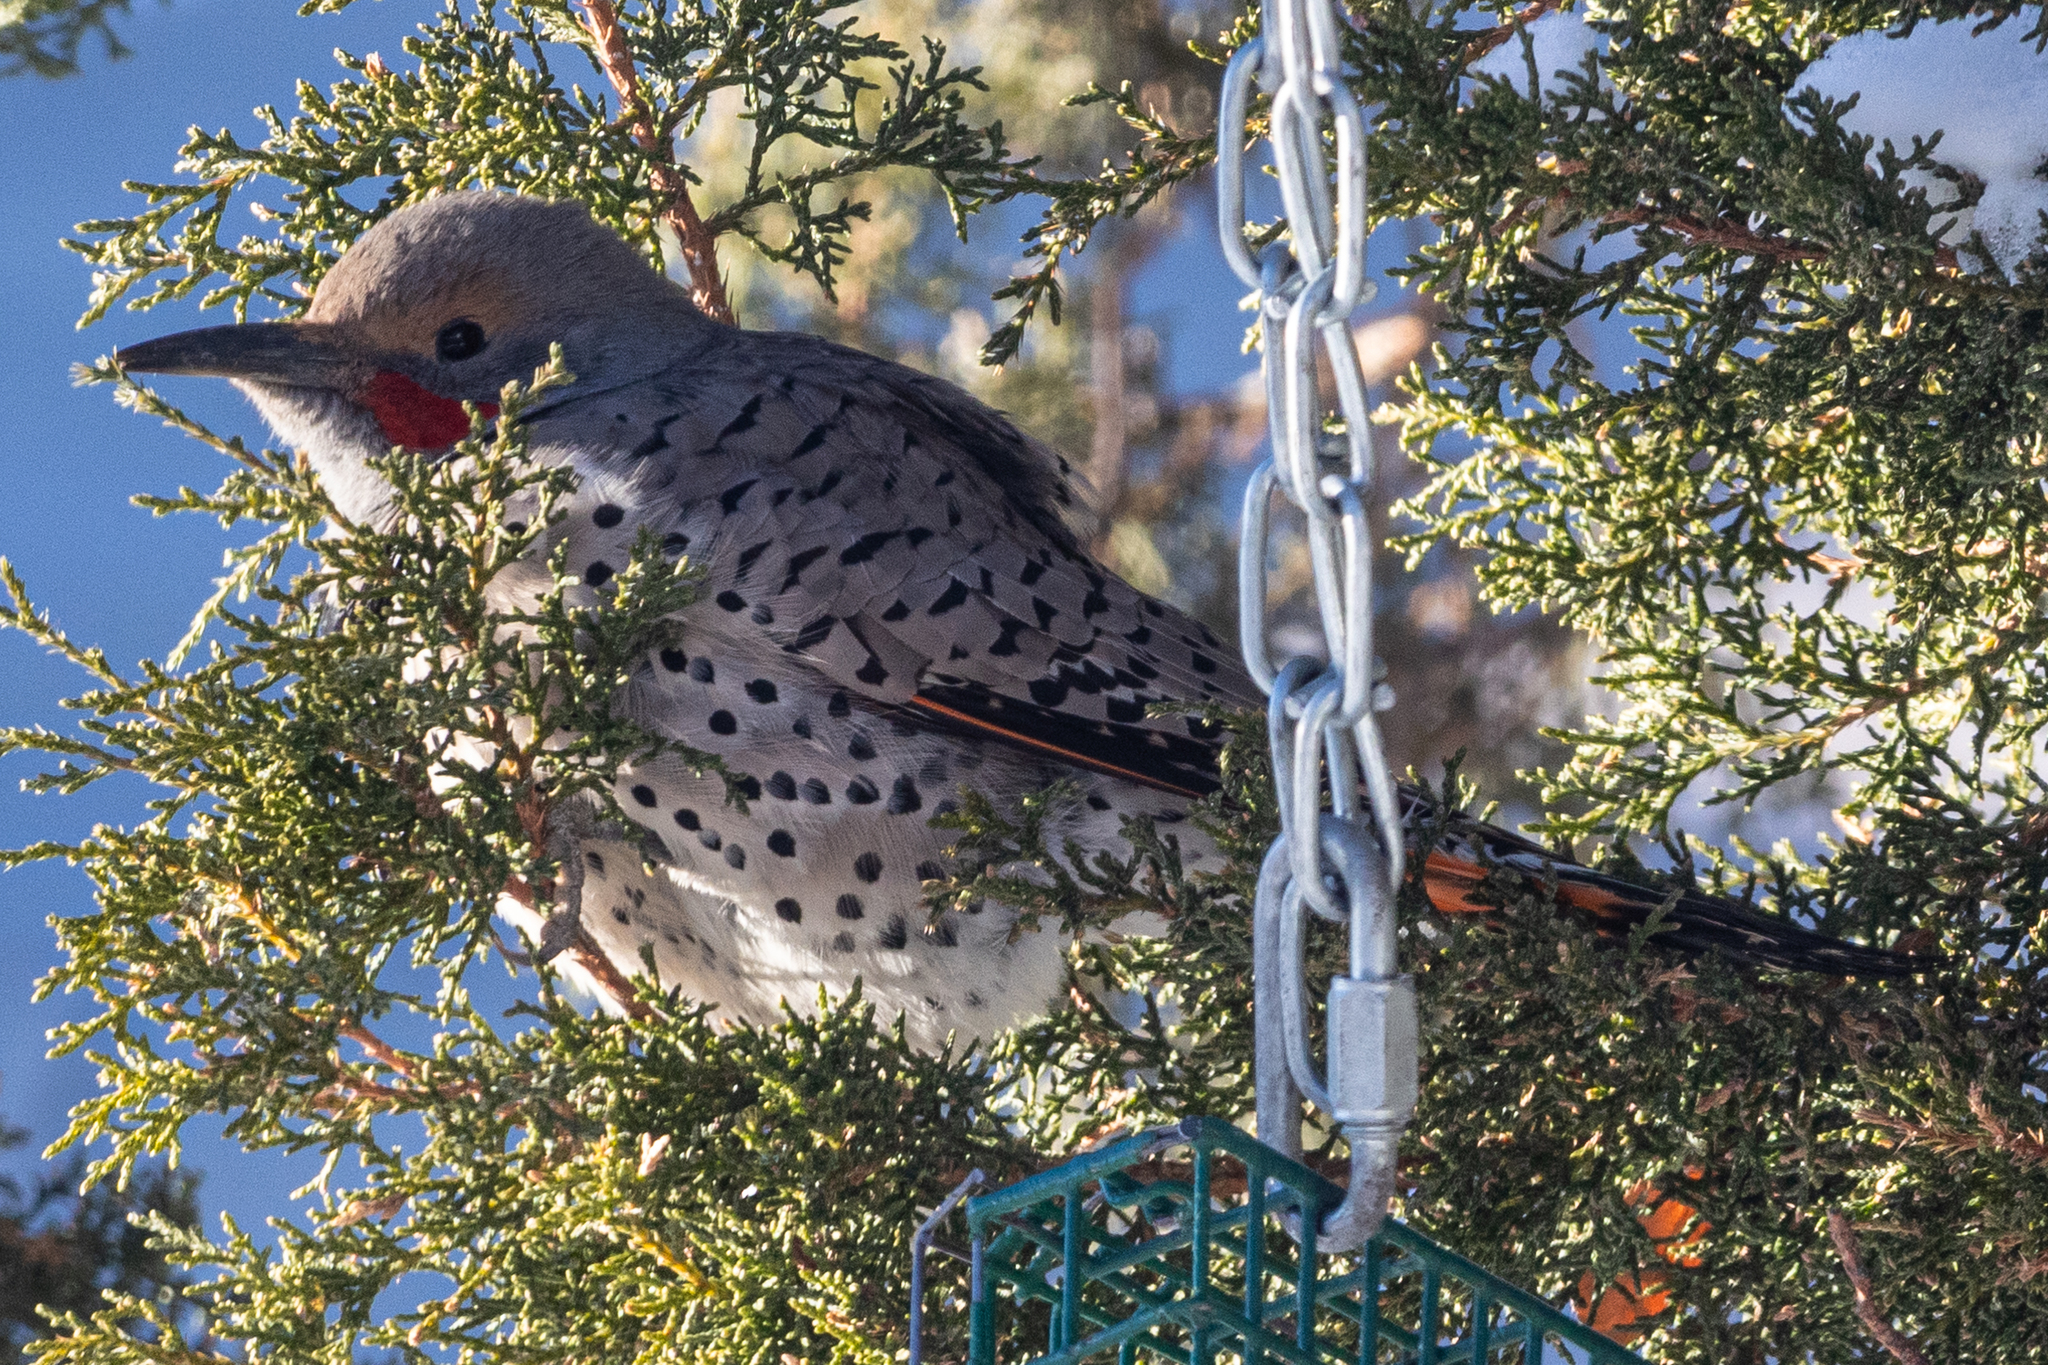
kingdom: Animalia
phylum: Chordata
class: Aves
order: Piciformes
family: Picidae
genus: Colaptes
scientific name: Colaptes auratus
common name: Northern flicker
